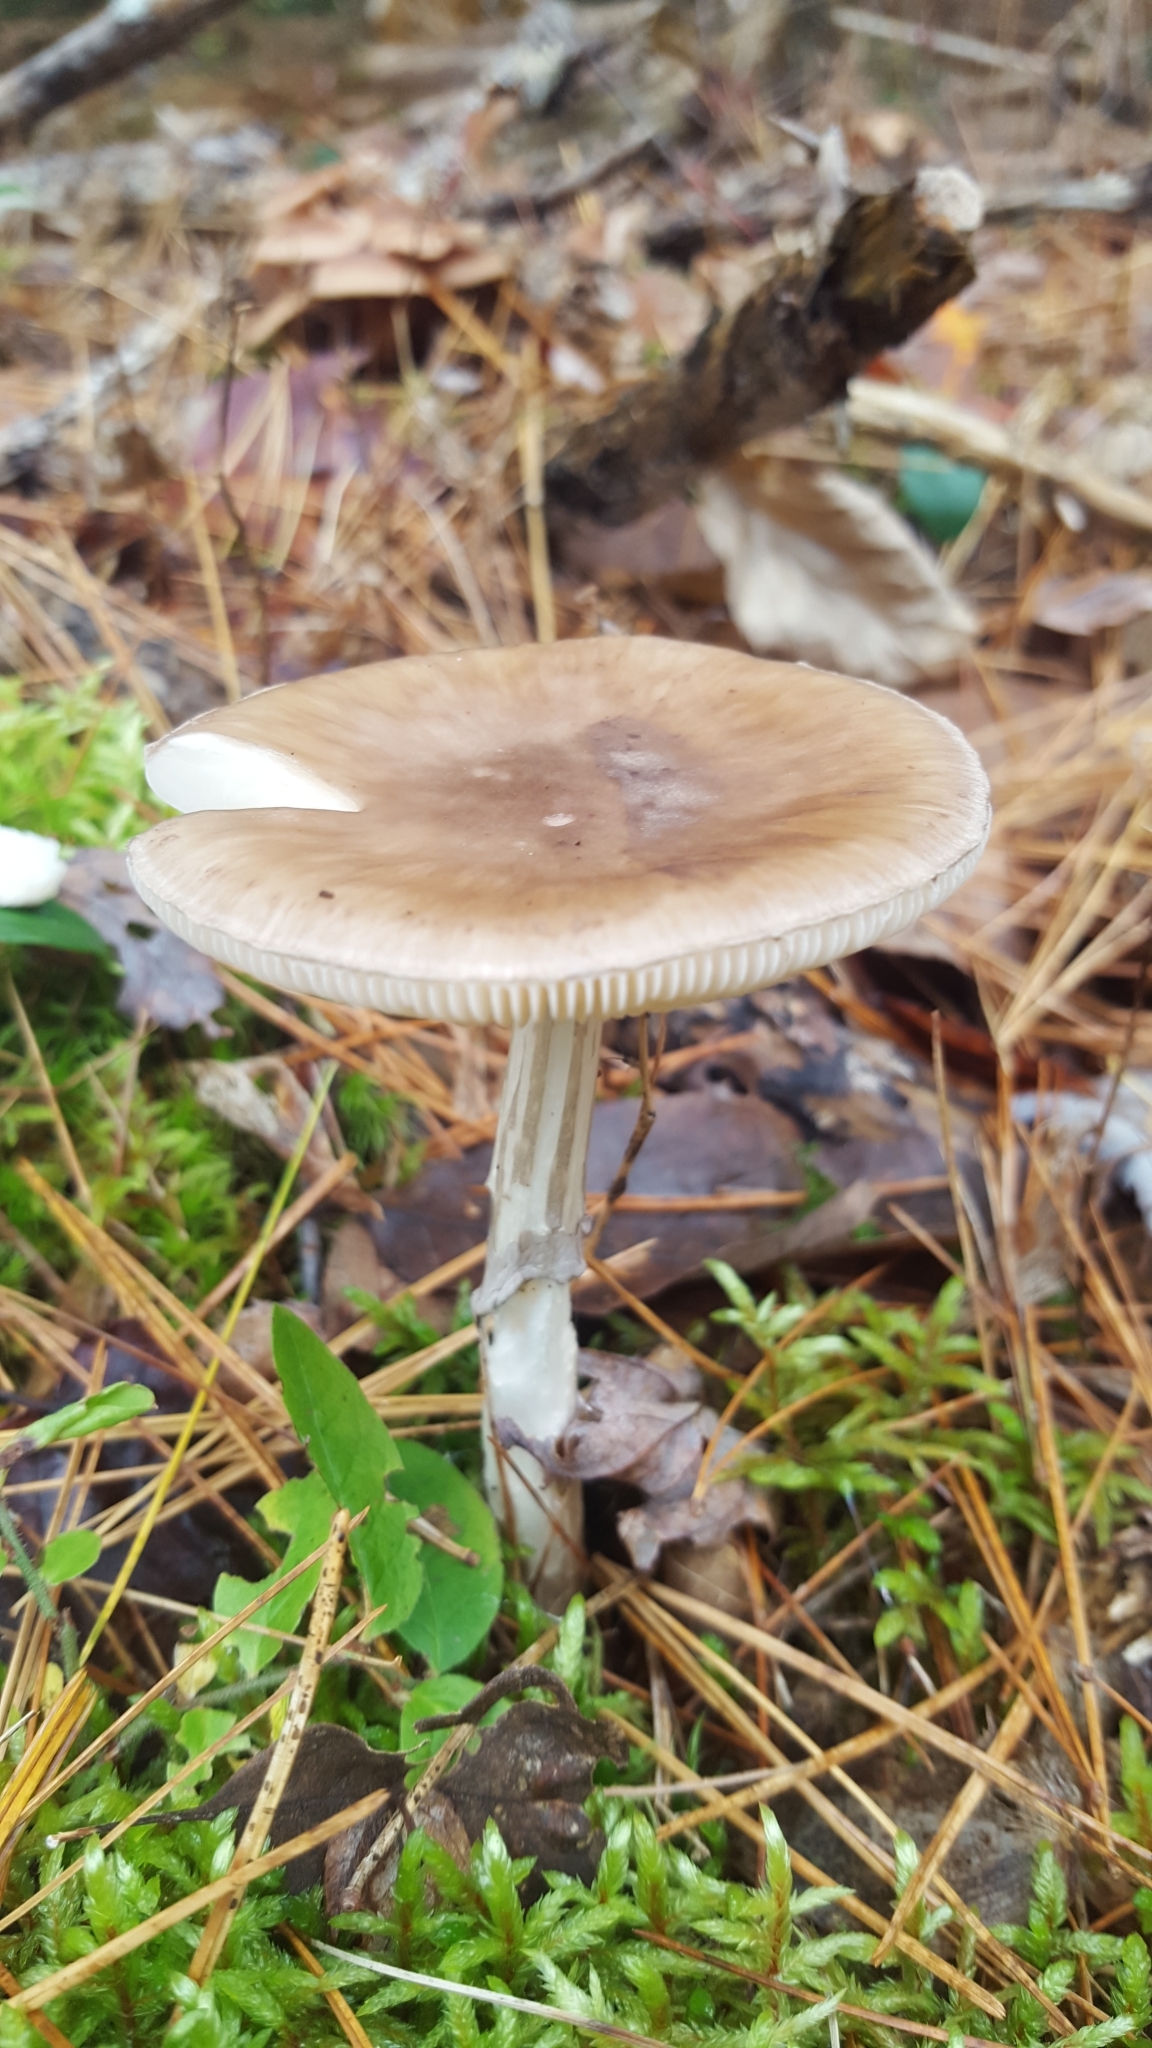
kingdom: Fungi
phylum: Basidiomycota
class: Agaricomycetes
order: Agaricales
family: Amanitaceae
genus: Amanita
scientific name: Amanita porphyria
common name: Grey veiled amanita
